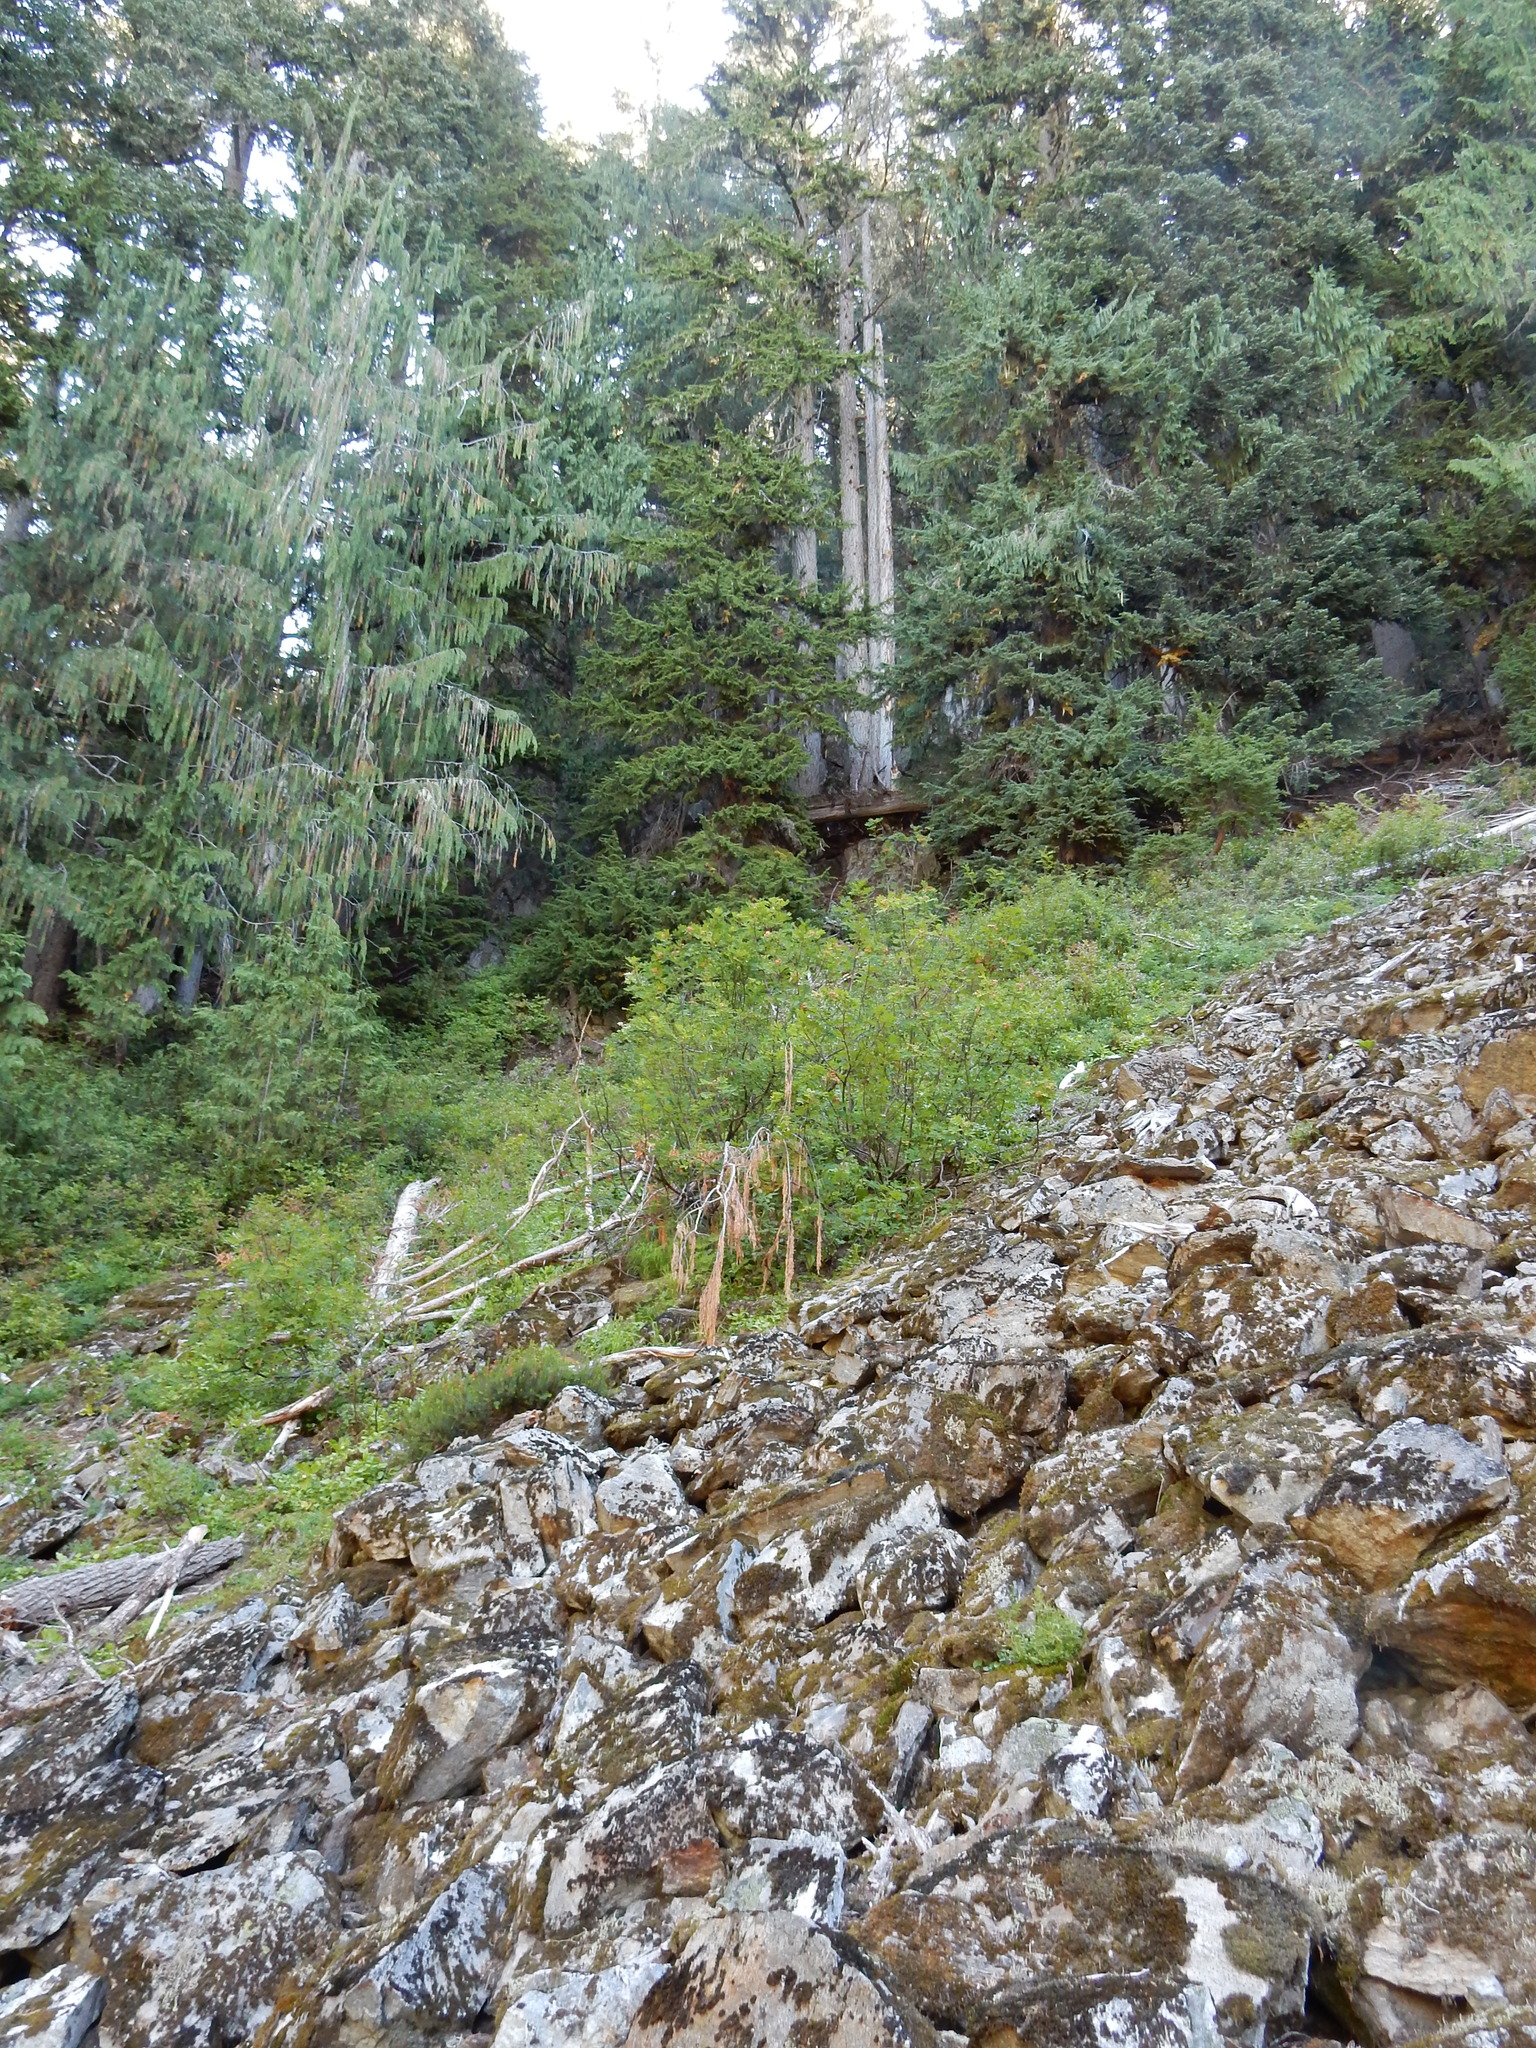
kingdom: Plantae
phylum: Tracheophyta
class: Polypodiopsida
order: Polypodiales
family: Pteridaceae
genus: Cryptogramma
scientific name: Cryptogramma cascadensis
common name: Cascade parsley fern
